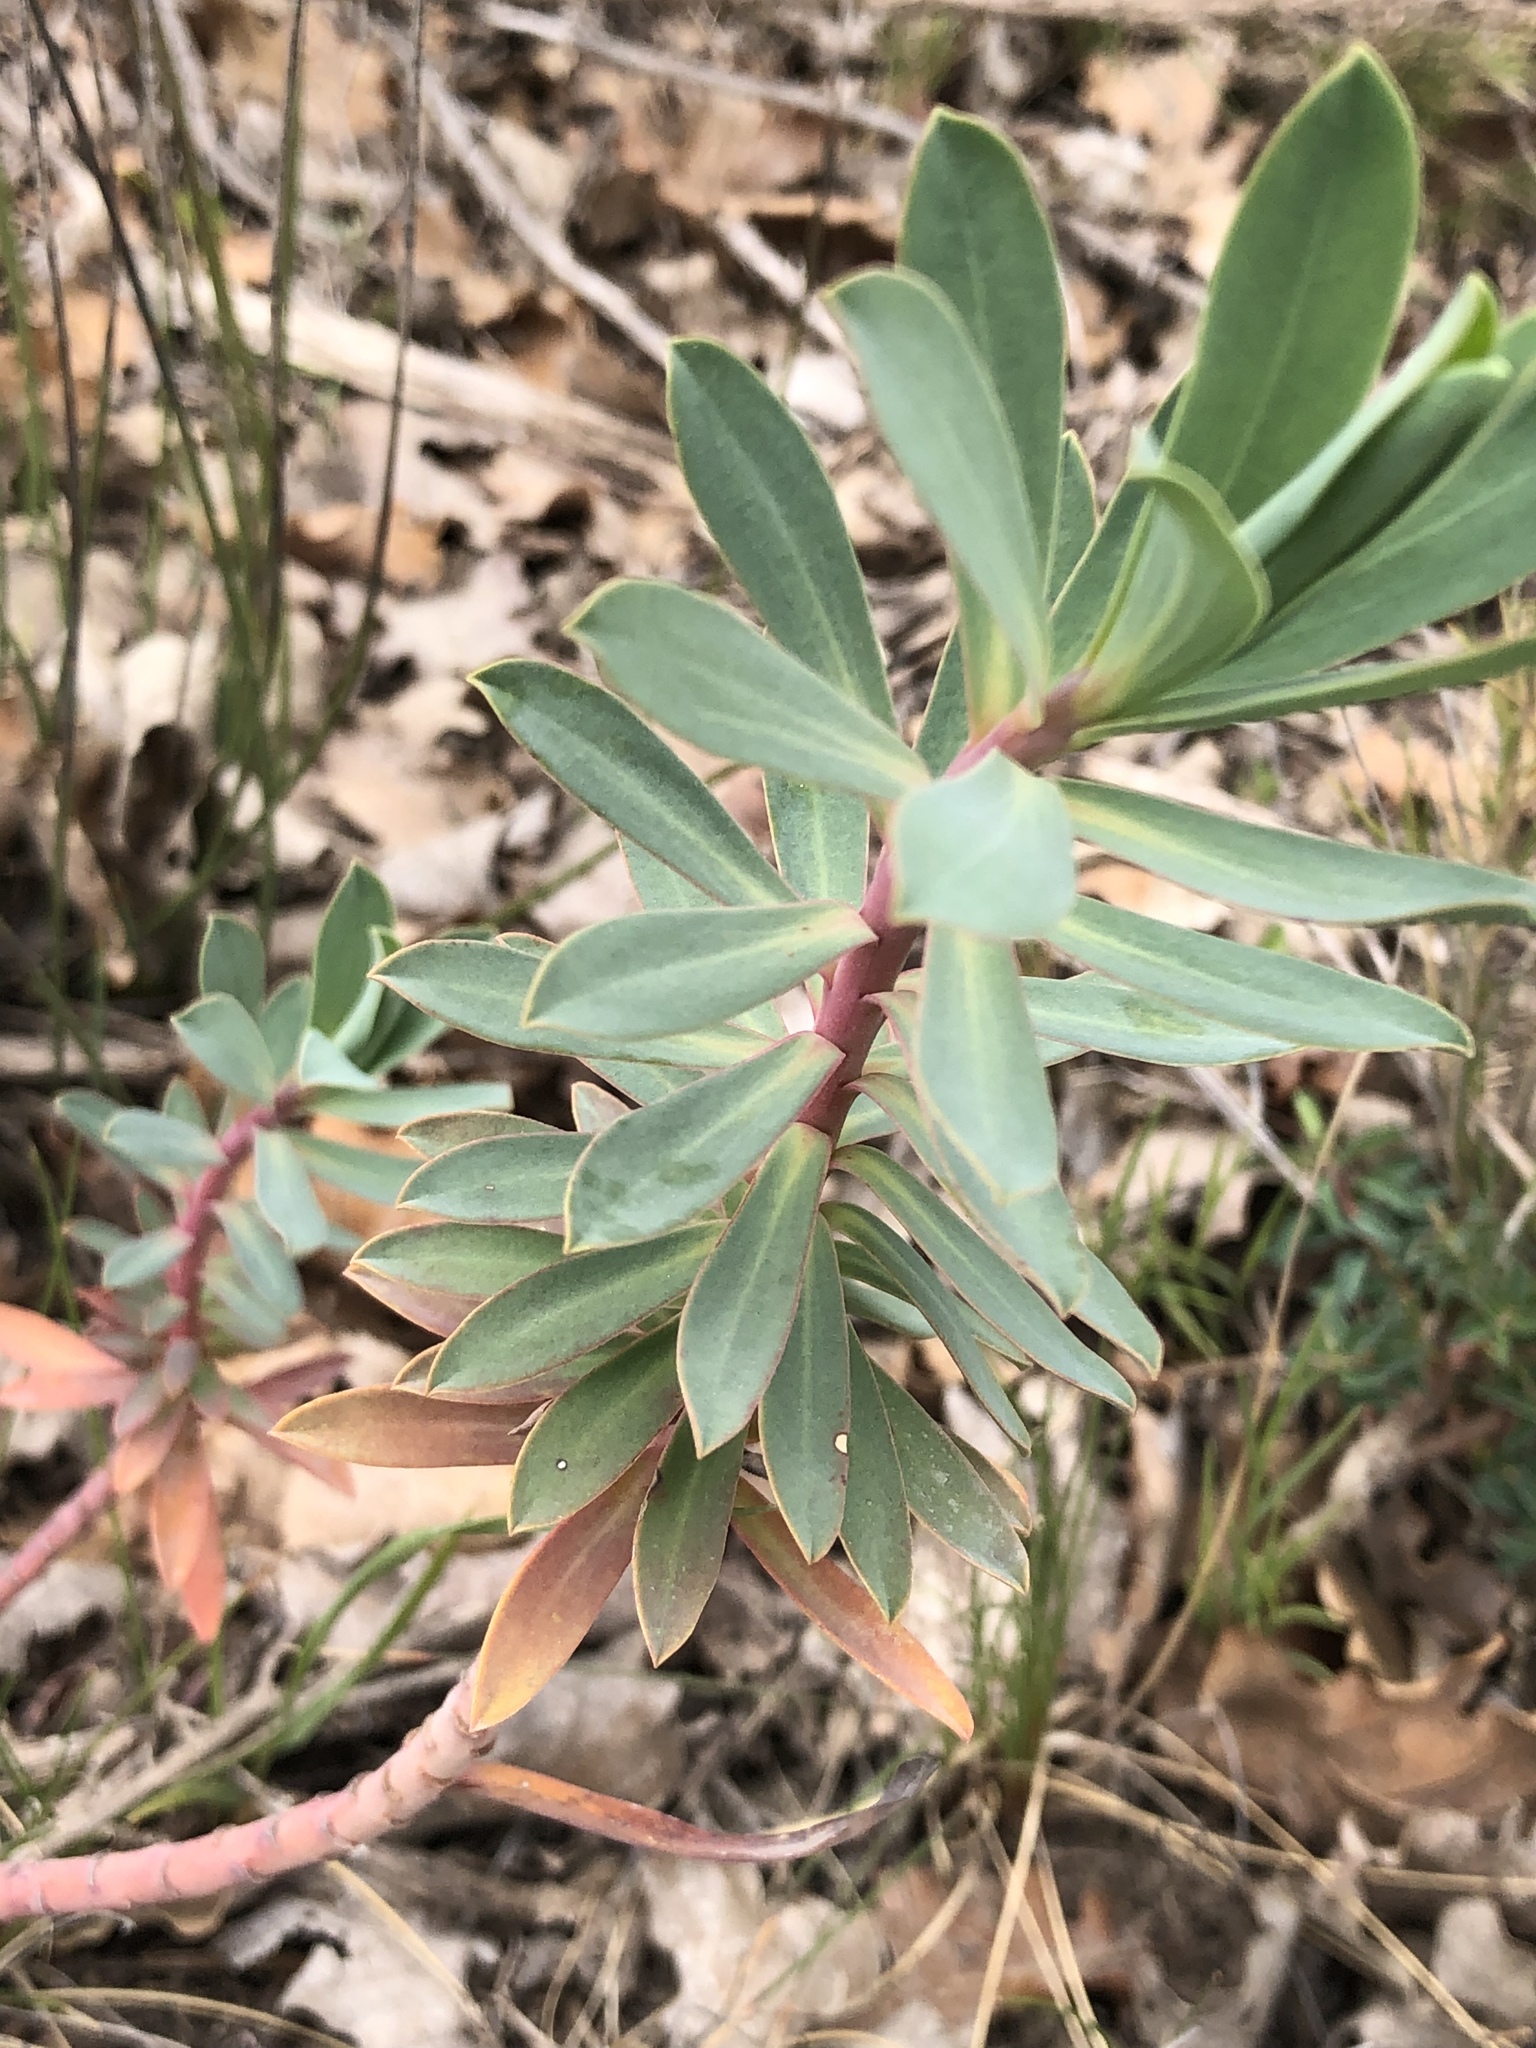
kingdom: Plantae
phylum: Tracheophyta
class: Magnoliopsida
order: Malpighiales
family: Euphorbiaceae
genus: Euphorbia
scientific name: Euphorbia characias
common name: Mediterranean spurge
